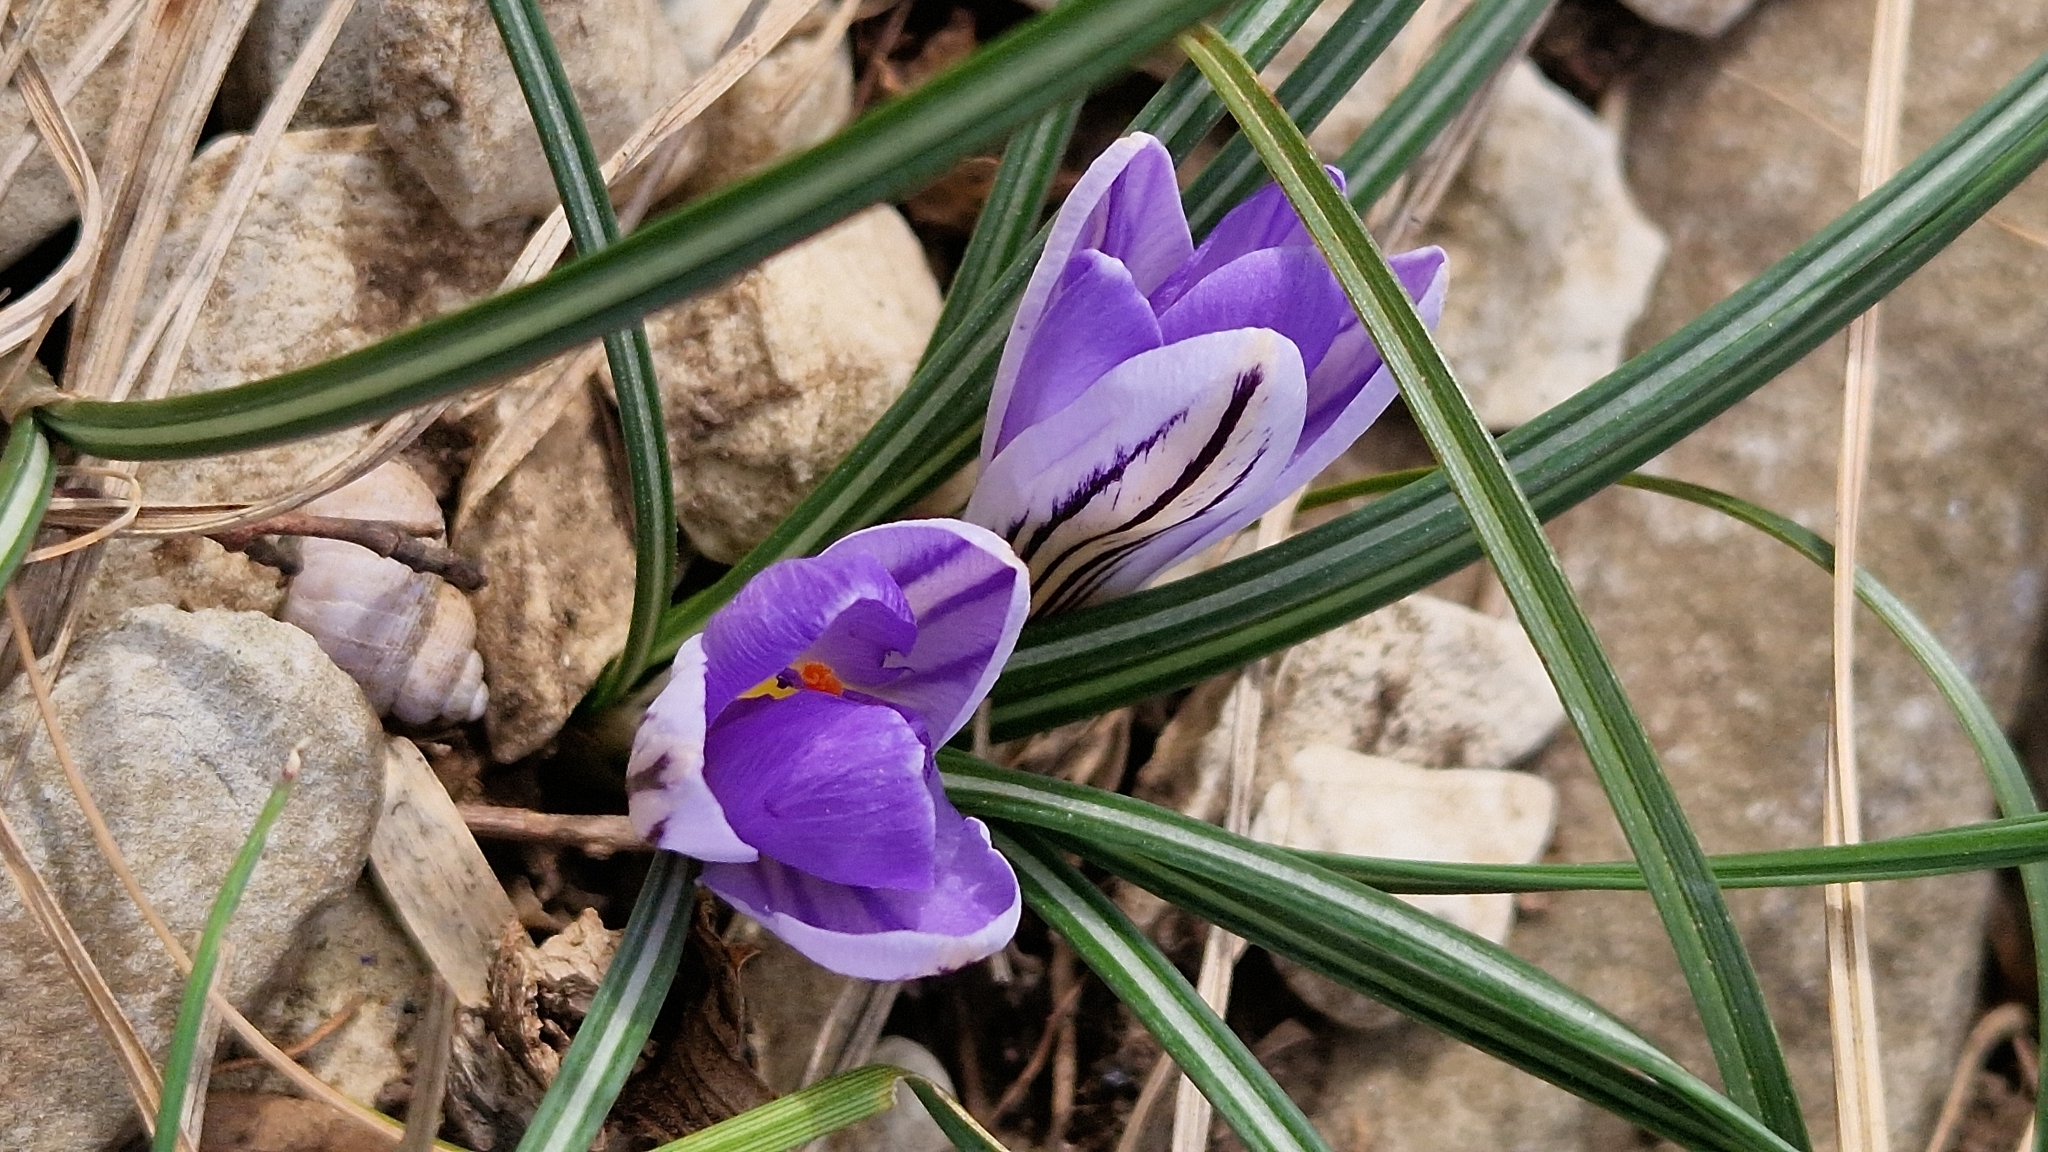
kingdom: Plantae
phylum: Tracheophyta
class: Liliopsida
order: Asparagales
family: Iridaceae
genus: Crocus
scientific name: Crocus reticulatus
